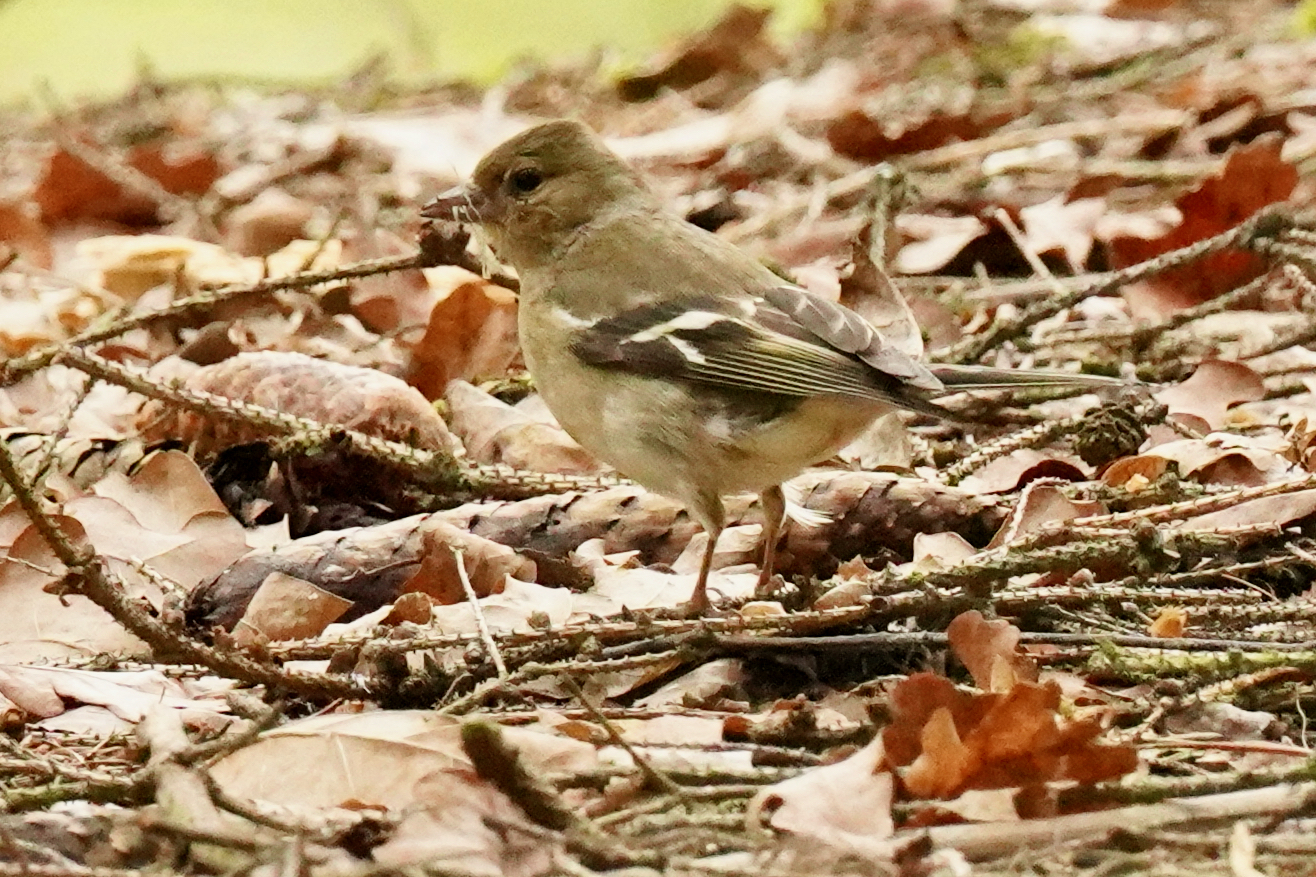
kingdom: Animalia
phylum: Chordata
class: Aves
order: Passeriformes
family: Fringillidae
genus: Fringilla
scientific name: Fringilla coelebs
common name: Common chaffinch
